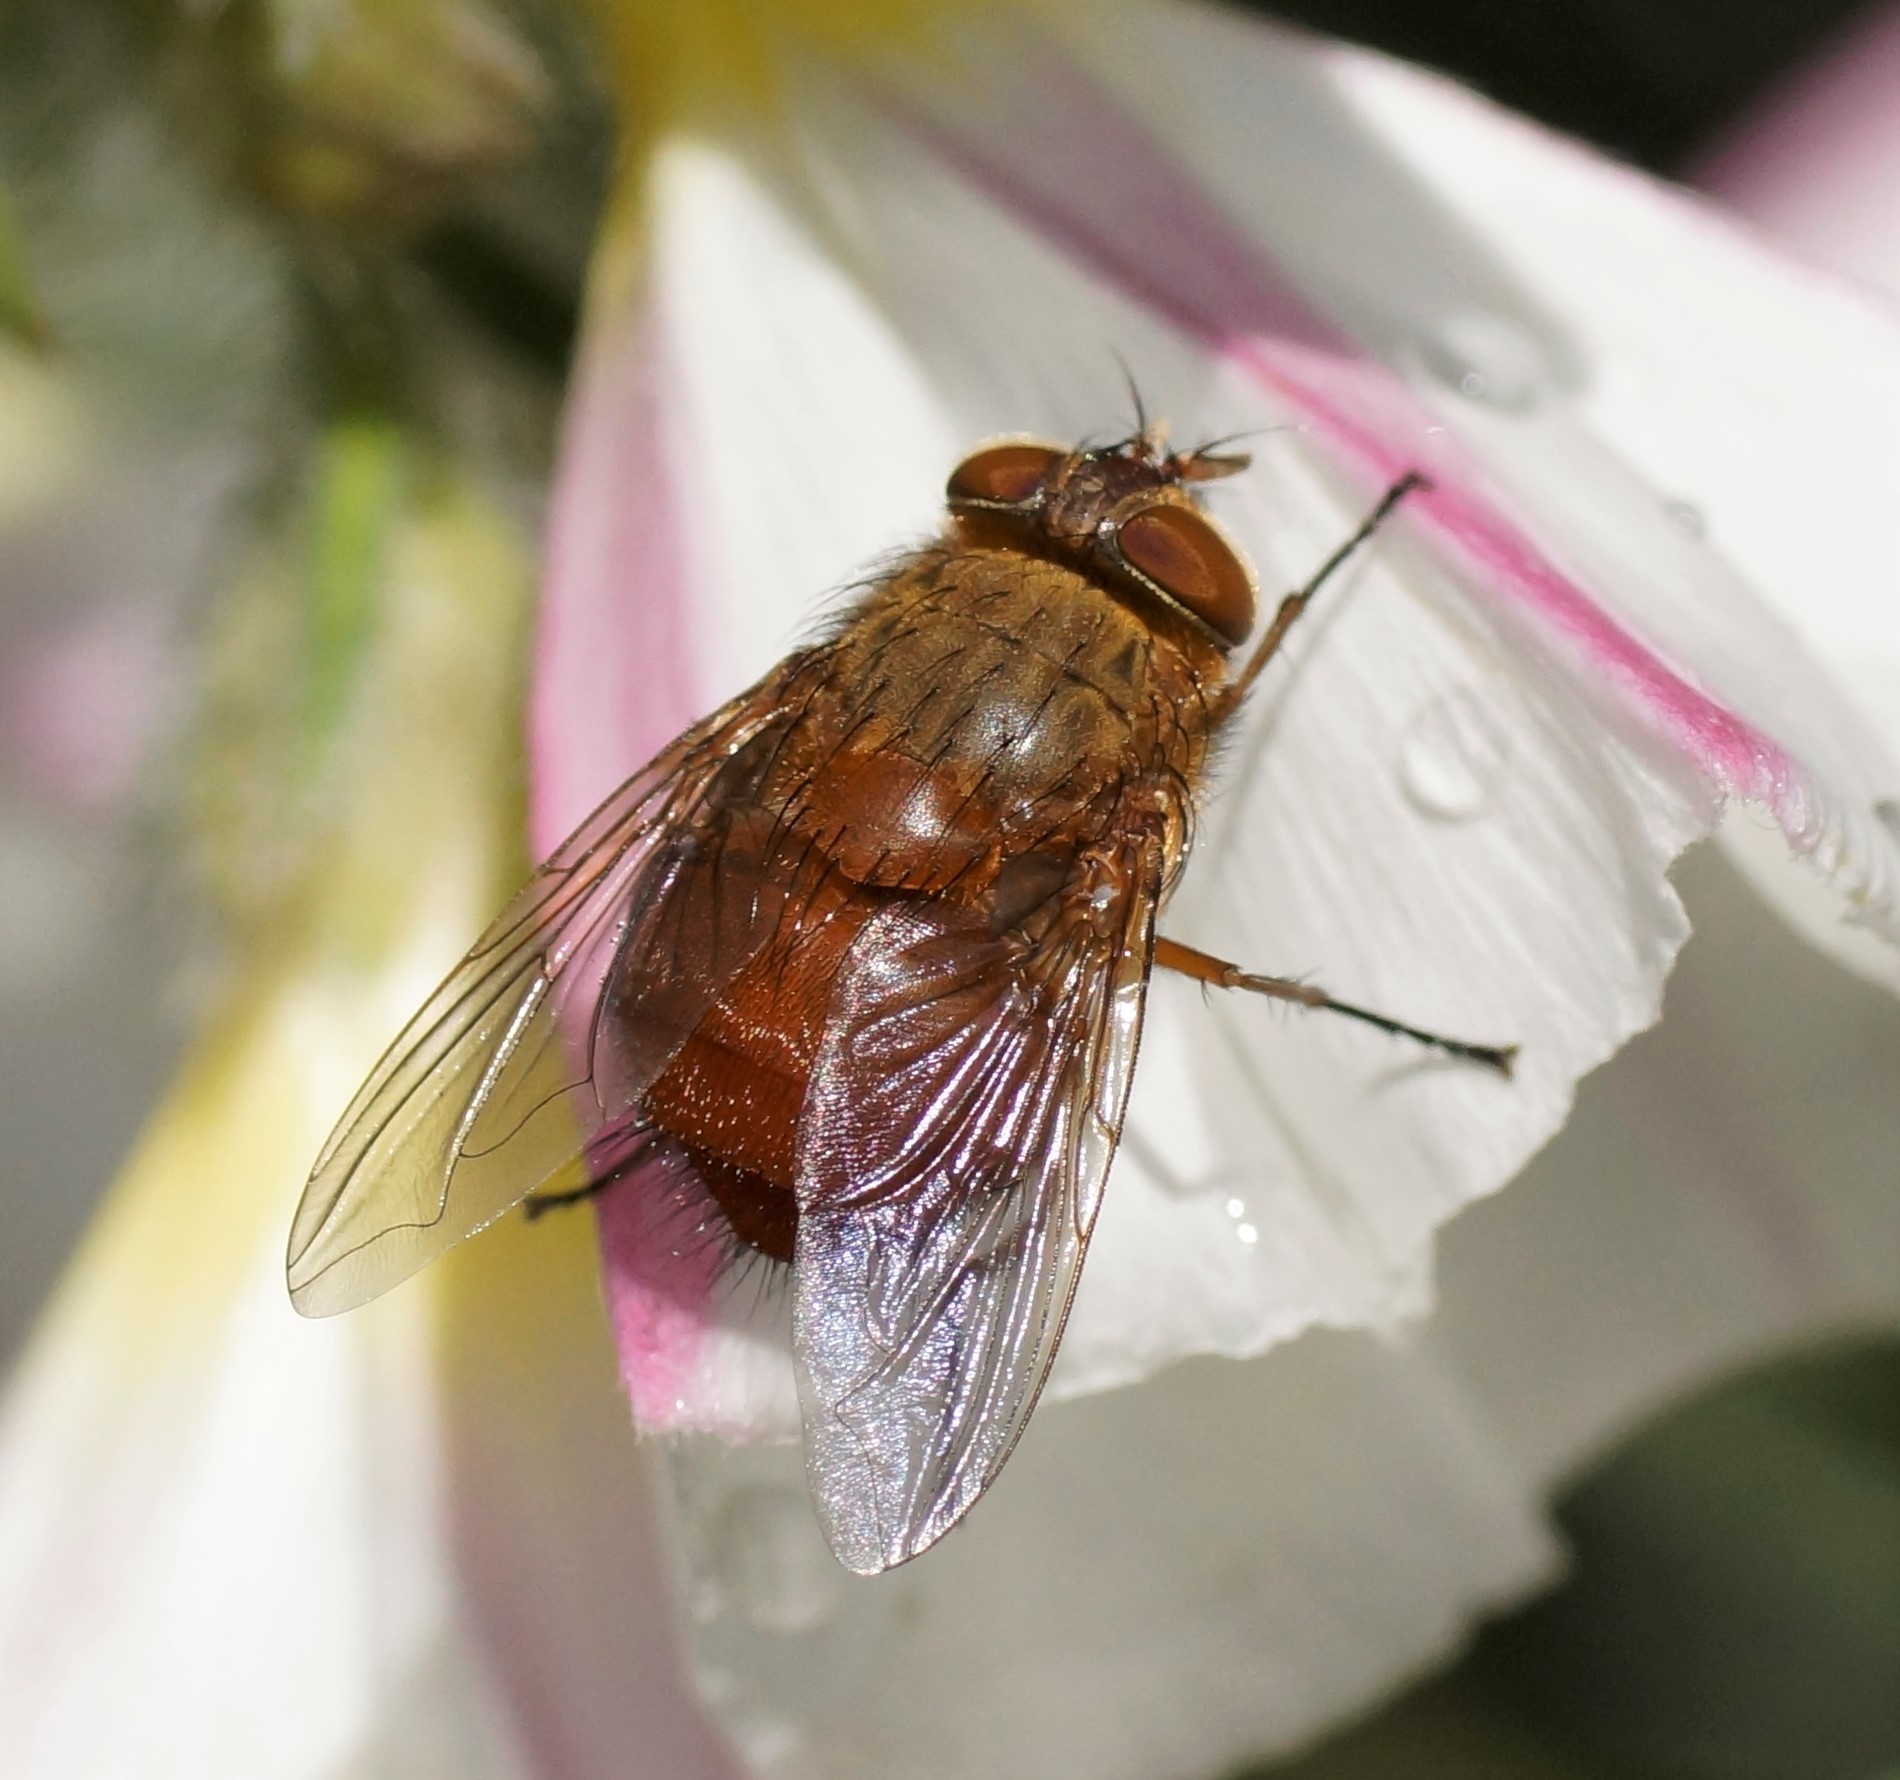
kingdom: Animalia
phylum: Arthropoda
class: Insecta
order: Diptera
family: Calliphoridae
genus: Calliphora
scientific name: Calliphora ochracea
